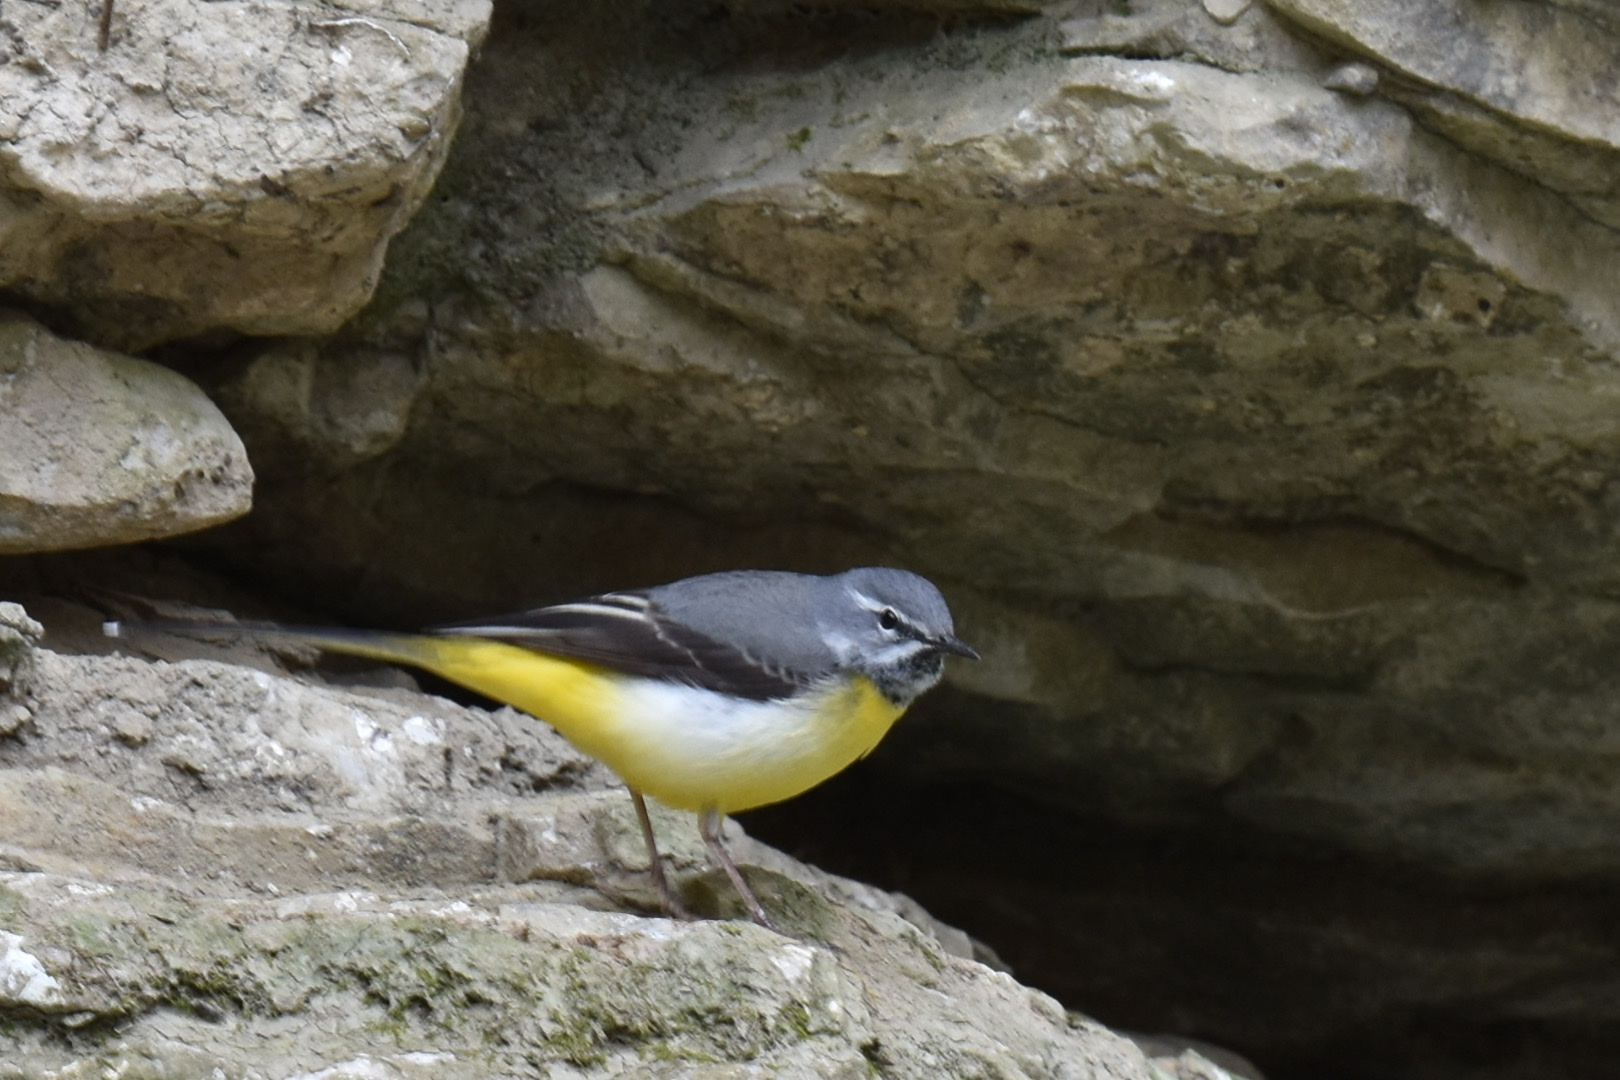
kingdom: Animalia
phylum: Chordata
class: Aves
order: Passeriformes
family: Motacillidae
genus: Motacilla
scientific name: Motacilla cinerea
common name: Grey wagtail
